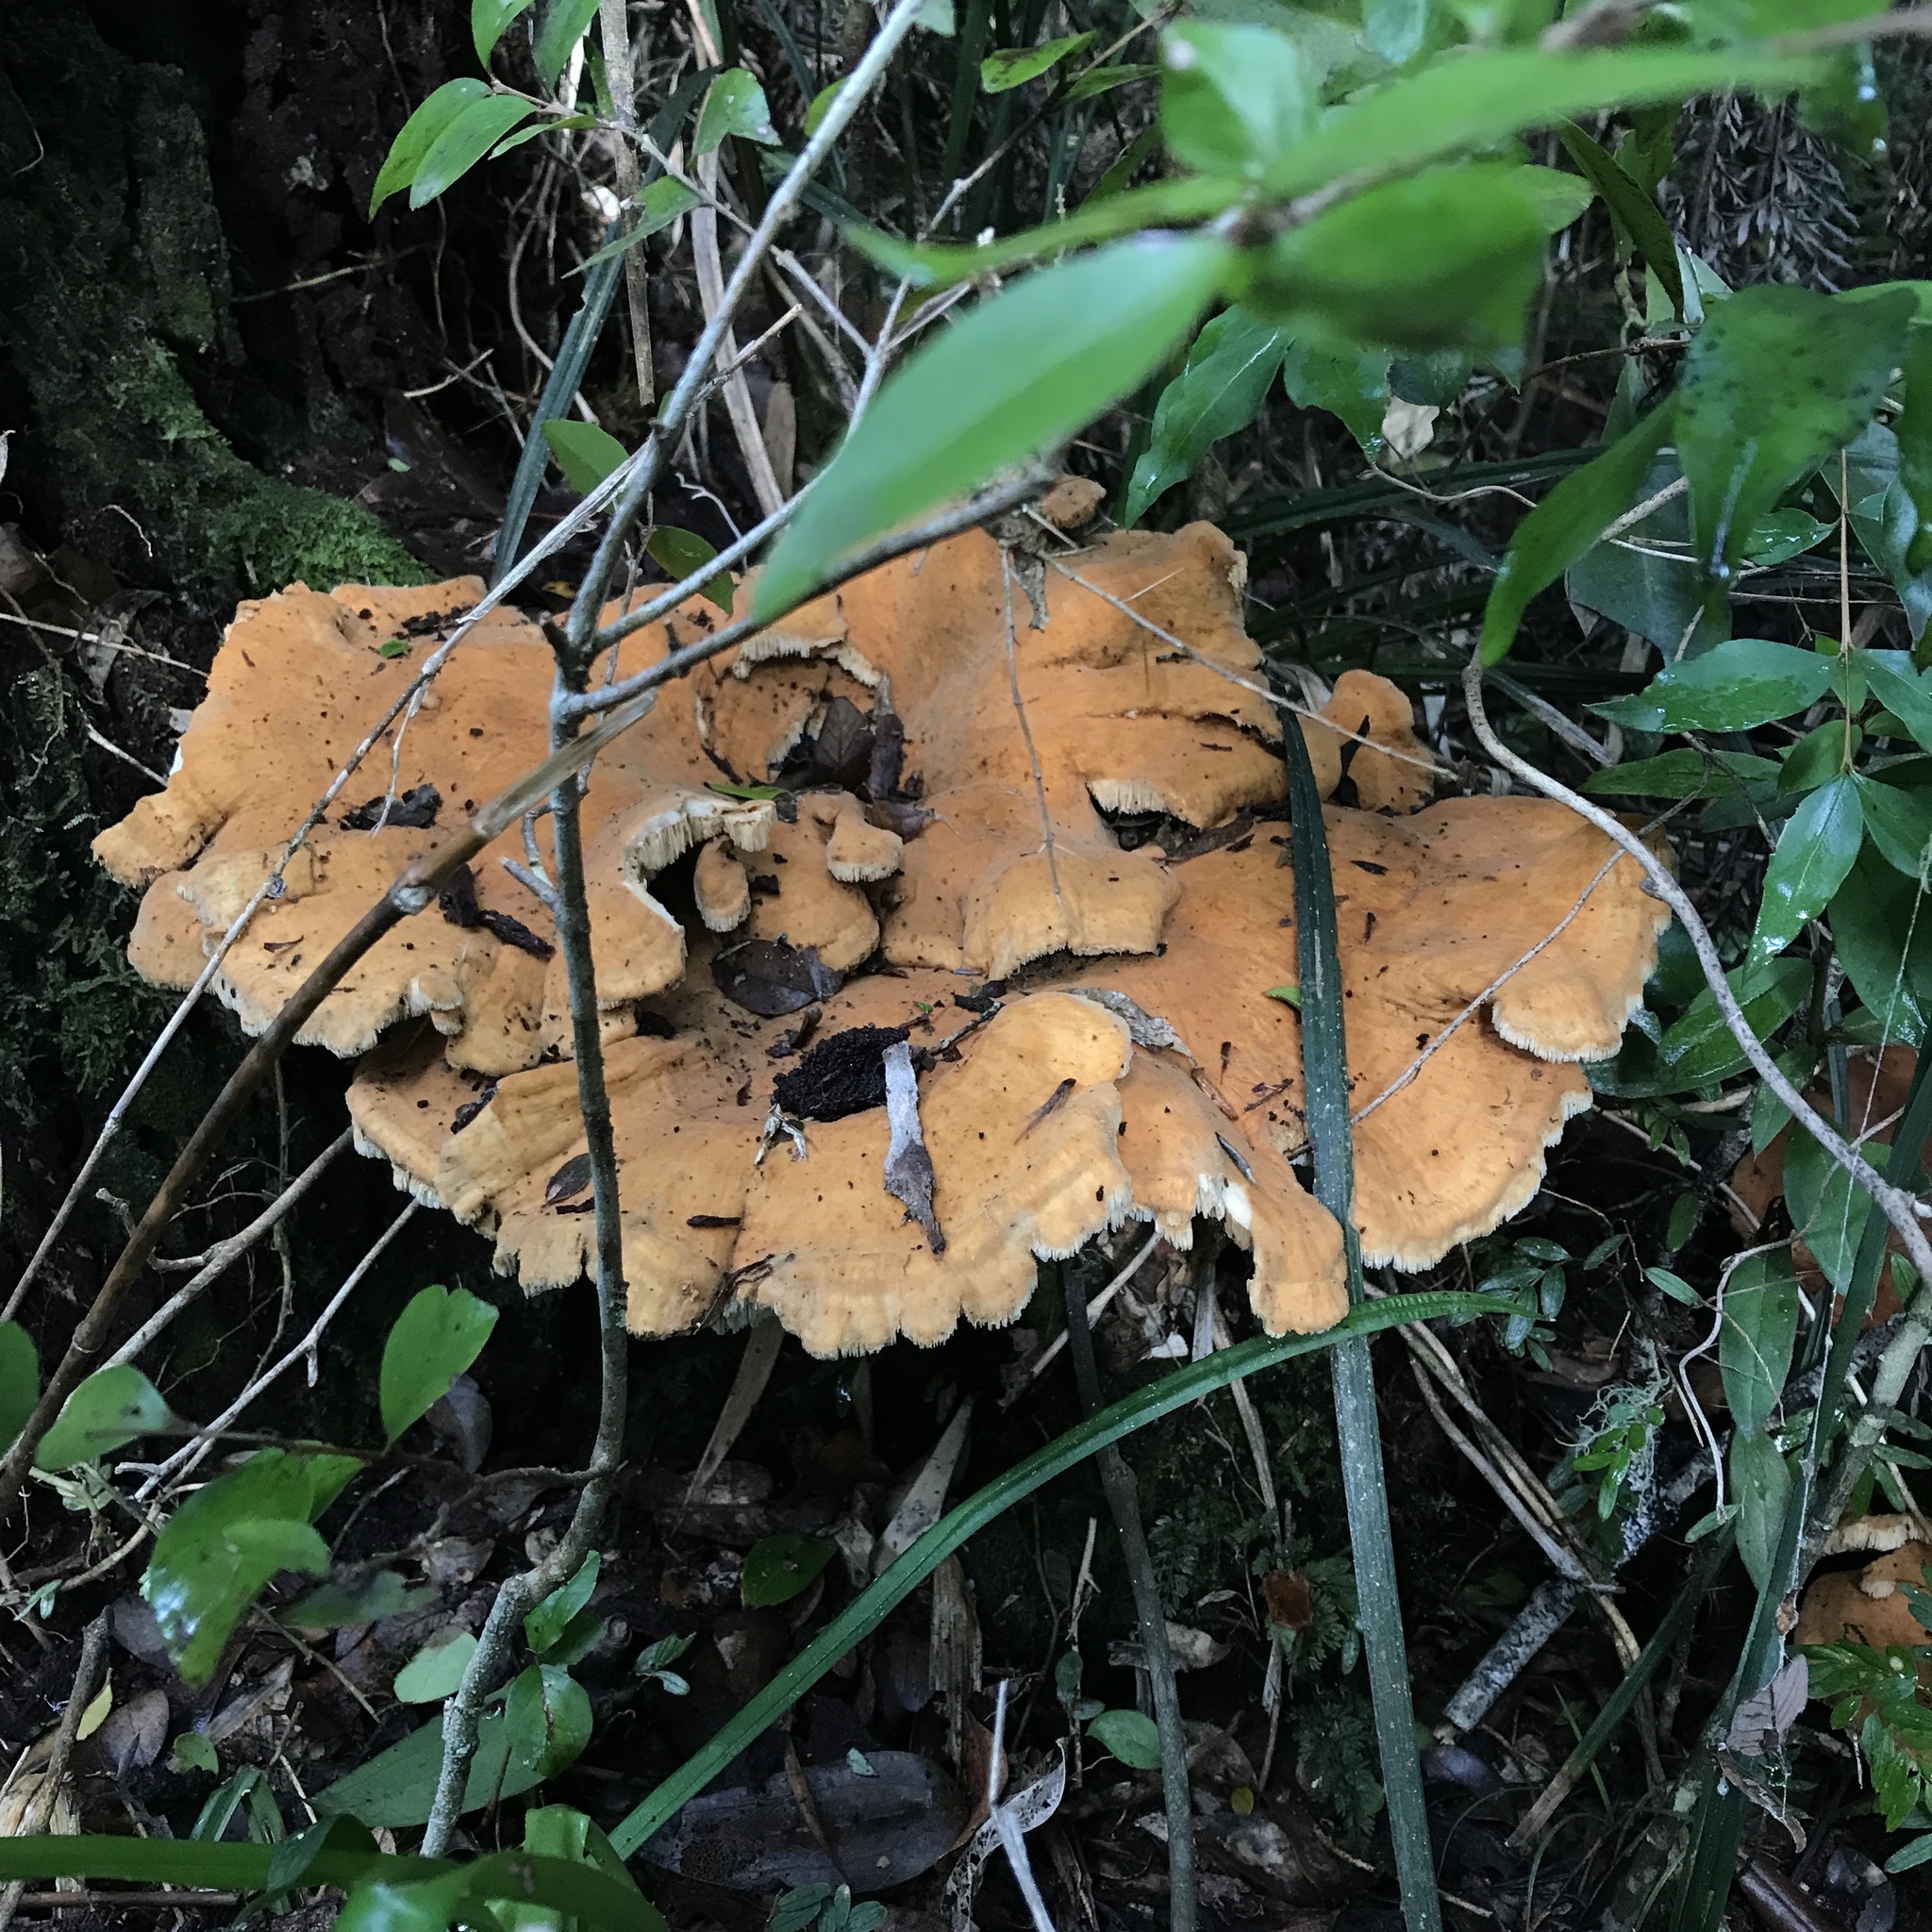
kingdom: Fungi
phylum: Basidiomycota
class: Agaricomycetes
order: Russulales
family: Bondarzewiaceae
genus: Bondarzewia
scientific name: Bondarzewia guaitecasensis
